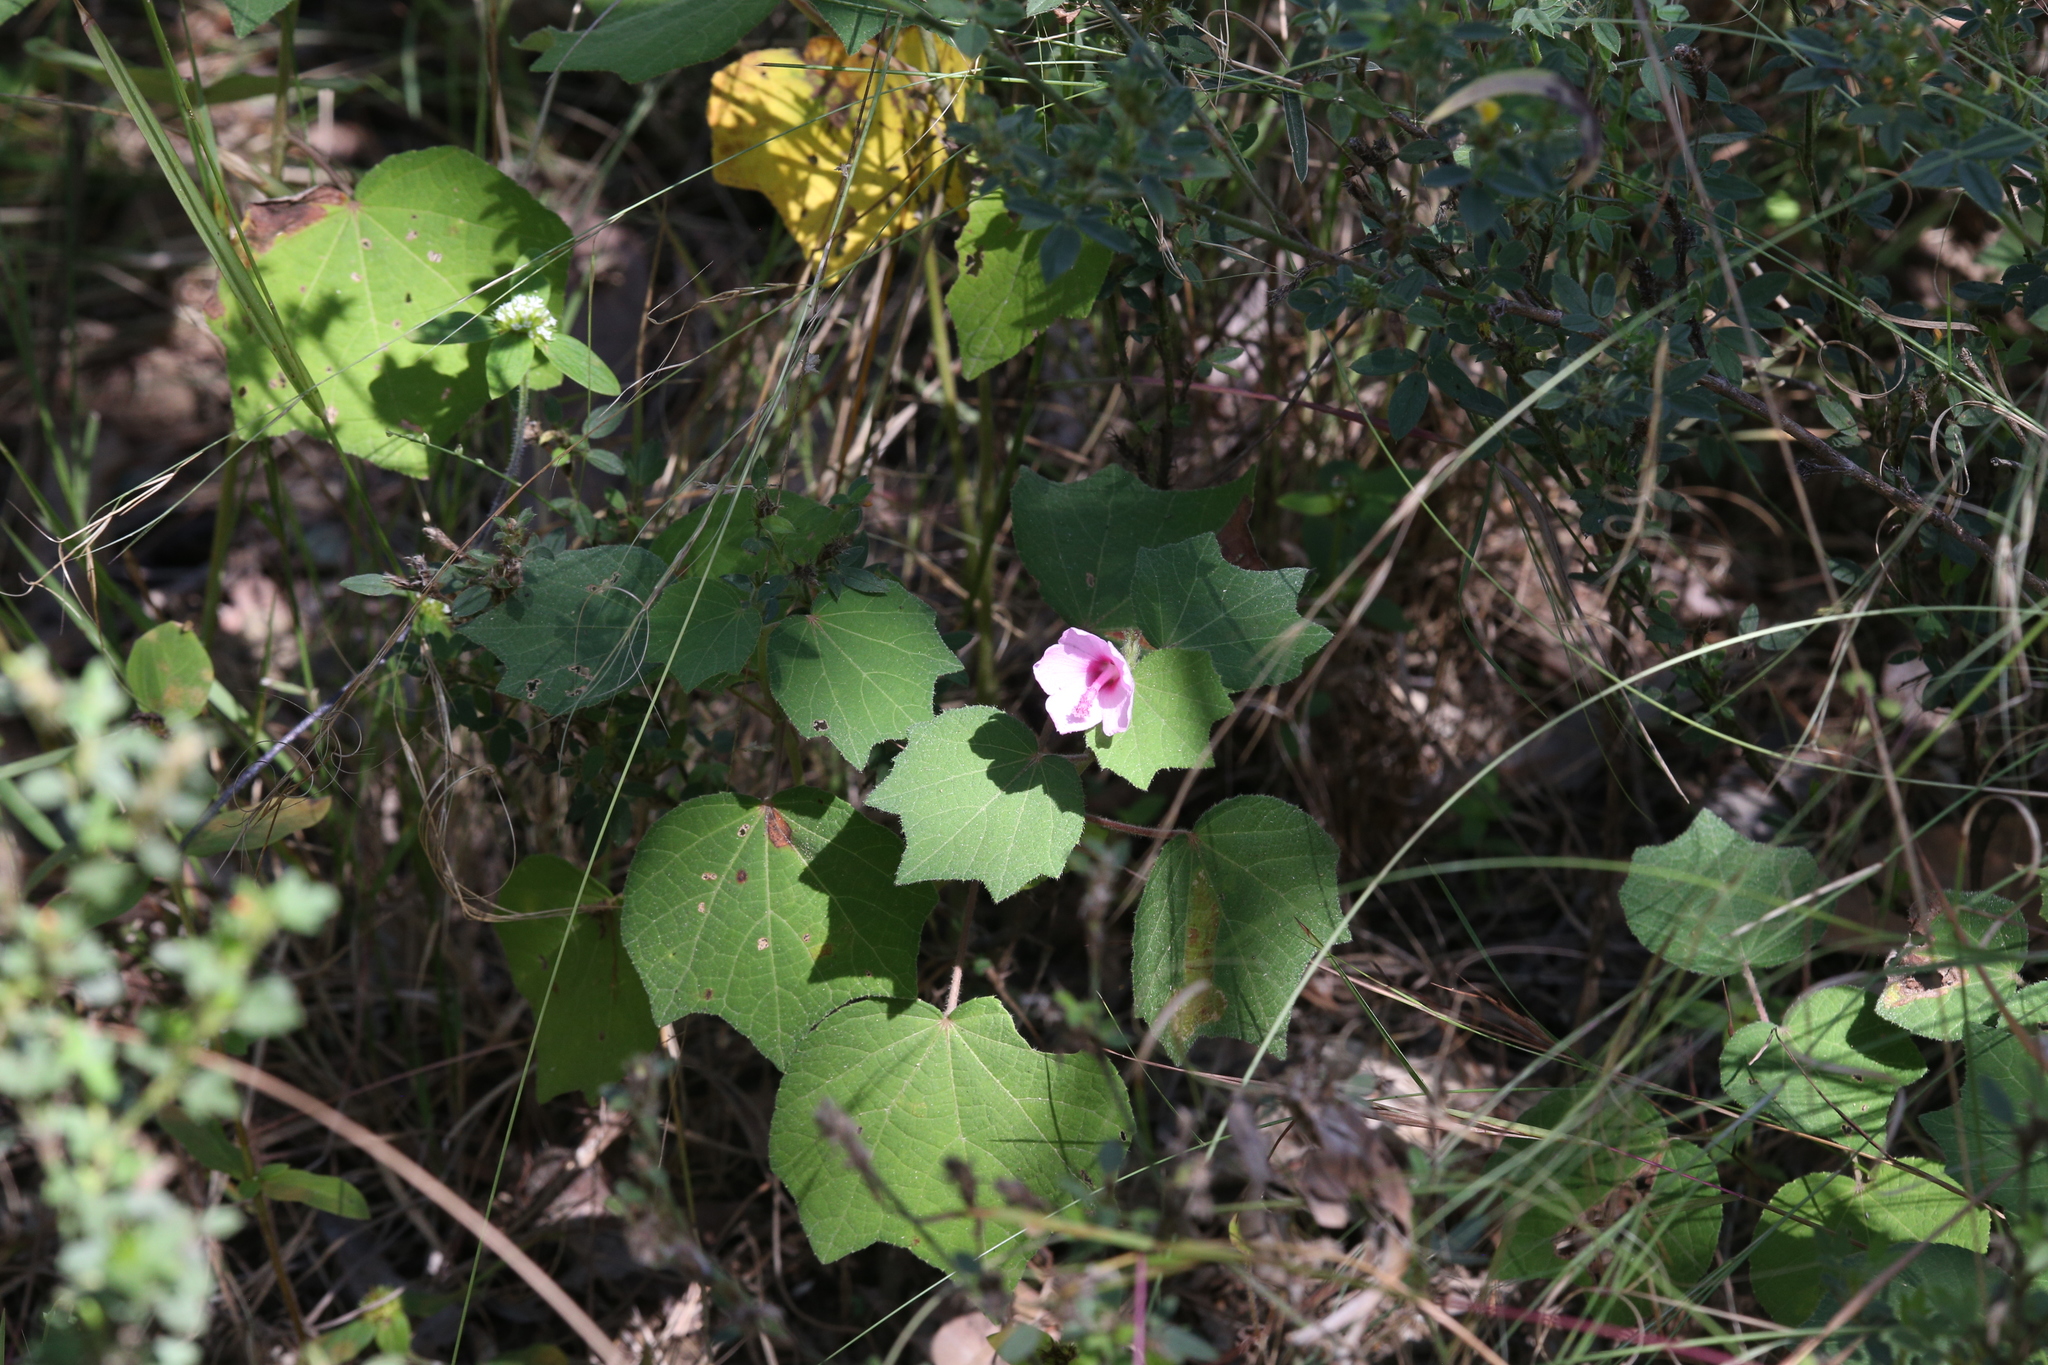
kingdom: Plantae
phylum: Tracheophyta
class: Magnoliopsida
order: Malvales
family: Malvaceae
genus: Urena
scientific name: Urena lobata
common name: Caesarweed
